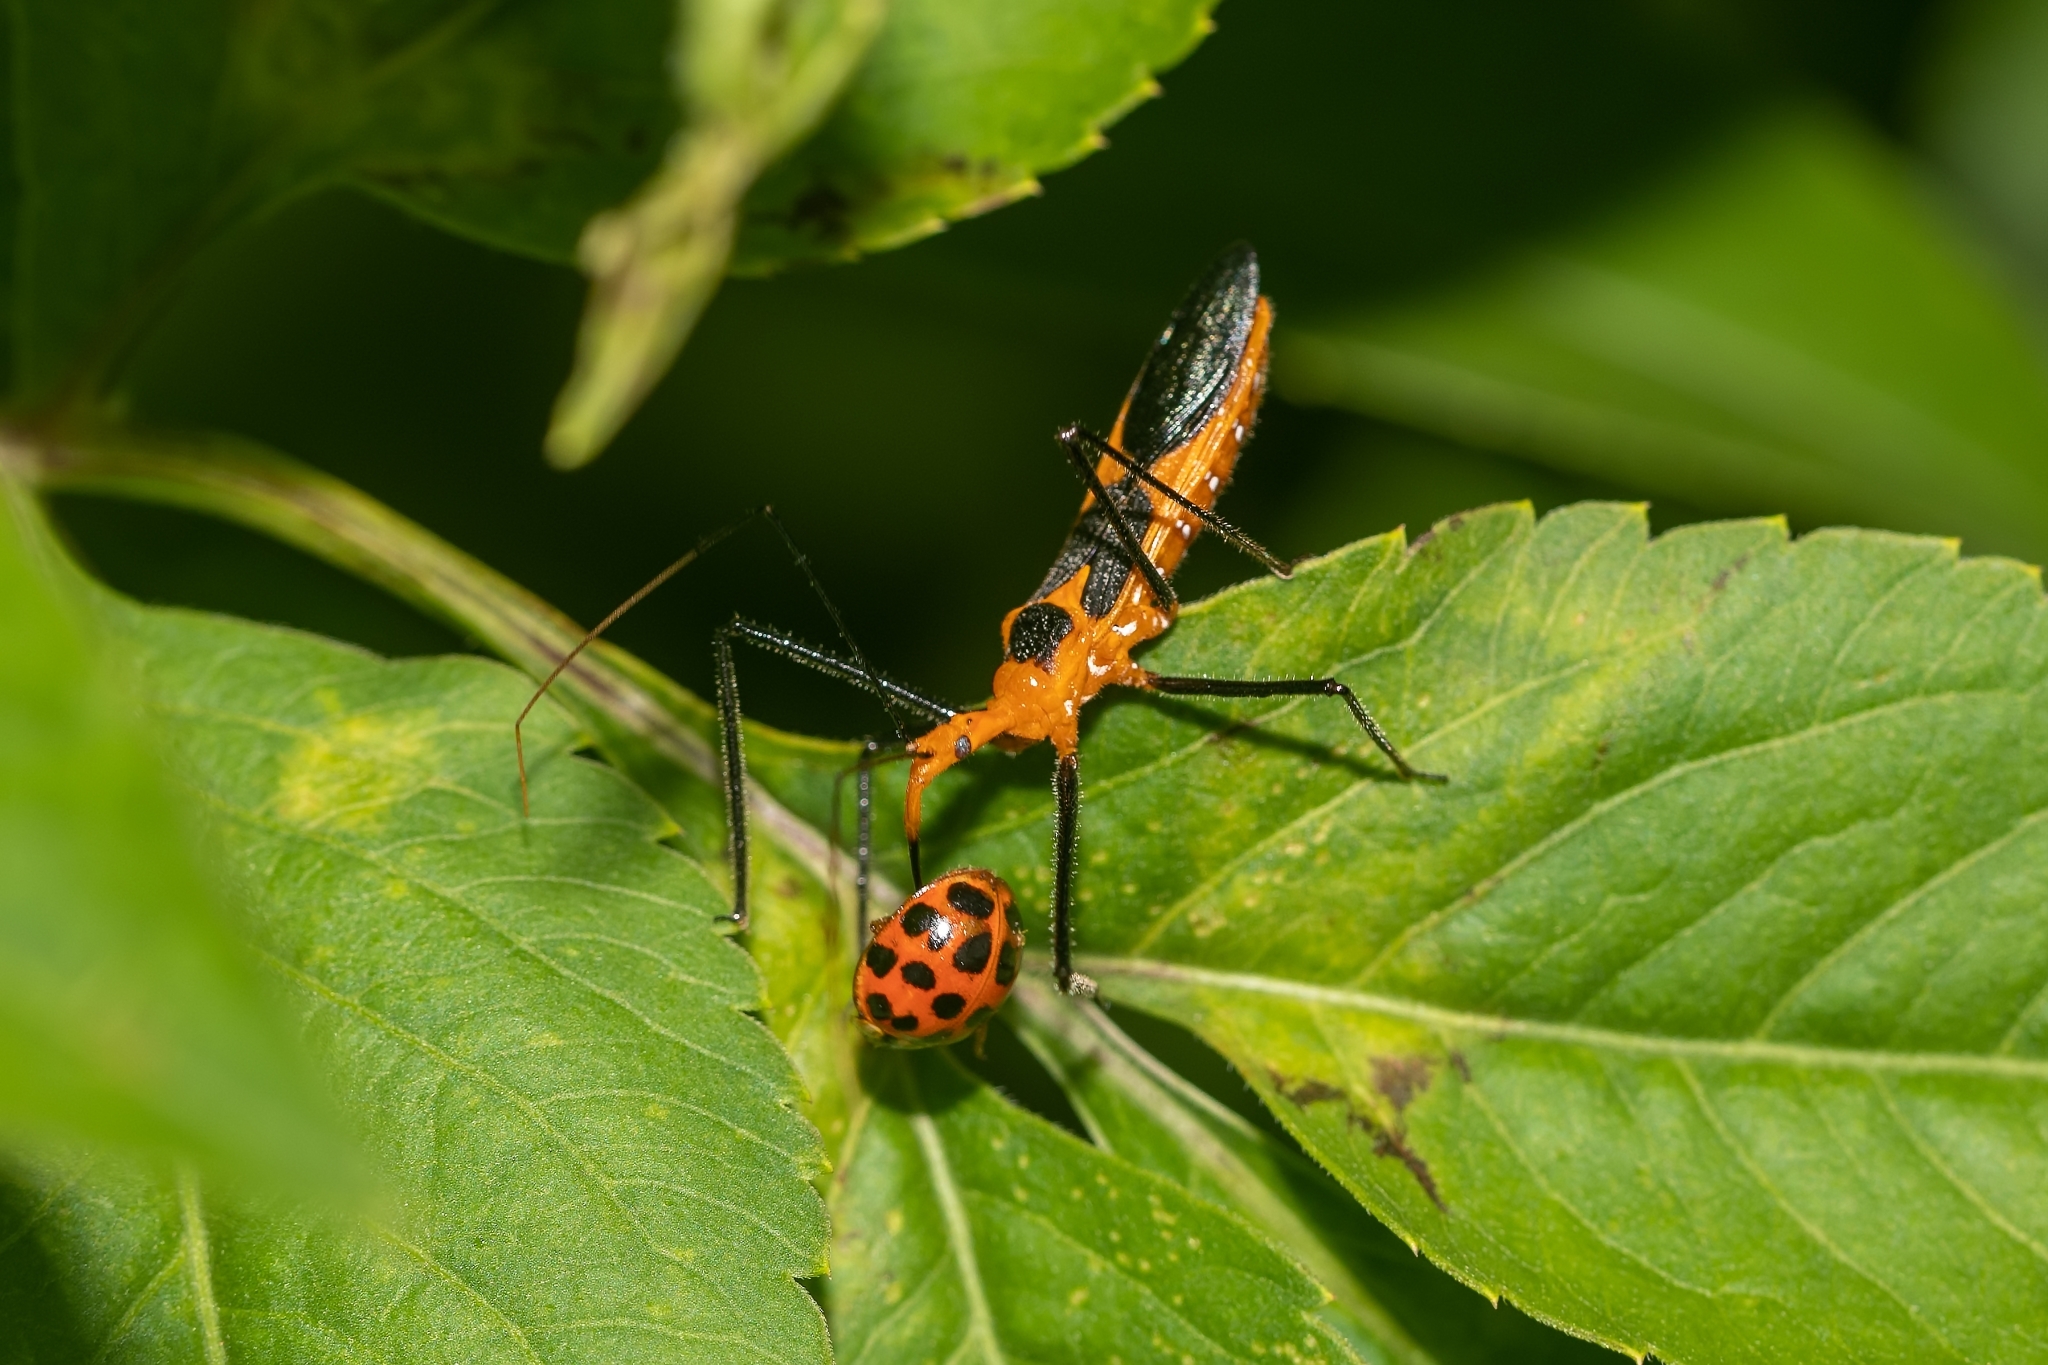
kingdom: Animalia
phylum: Arthropoda
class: Insecta
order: Hemiptera
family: Reduviidae
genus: Zelus
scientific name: Zelus longipes
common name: Milkweed assassin bug
